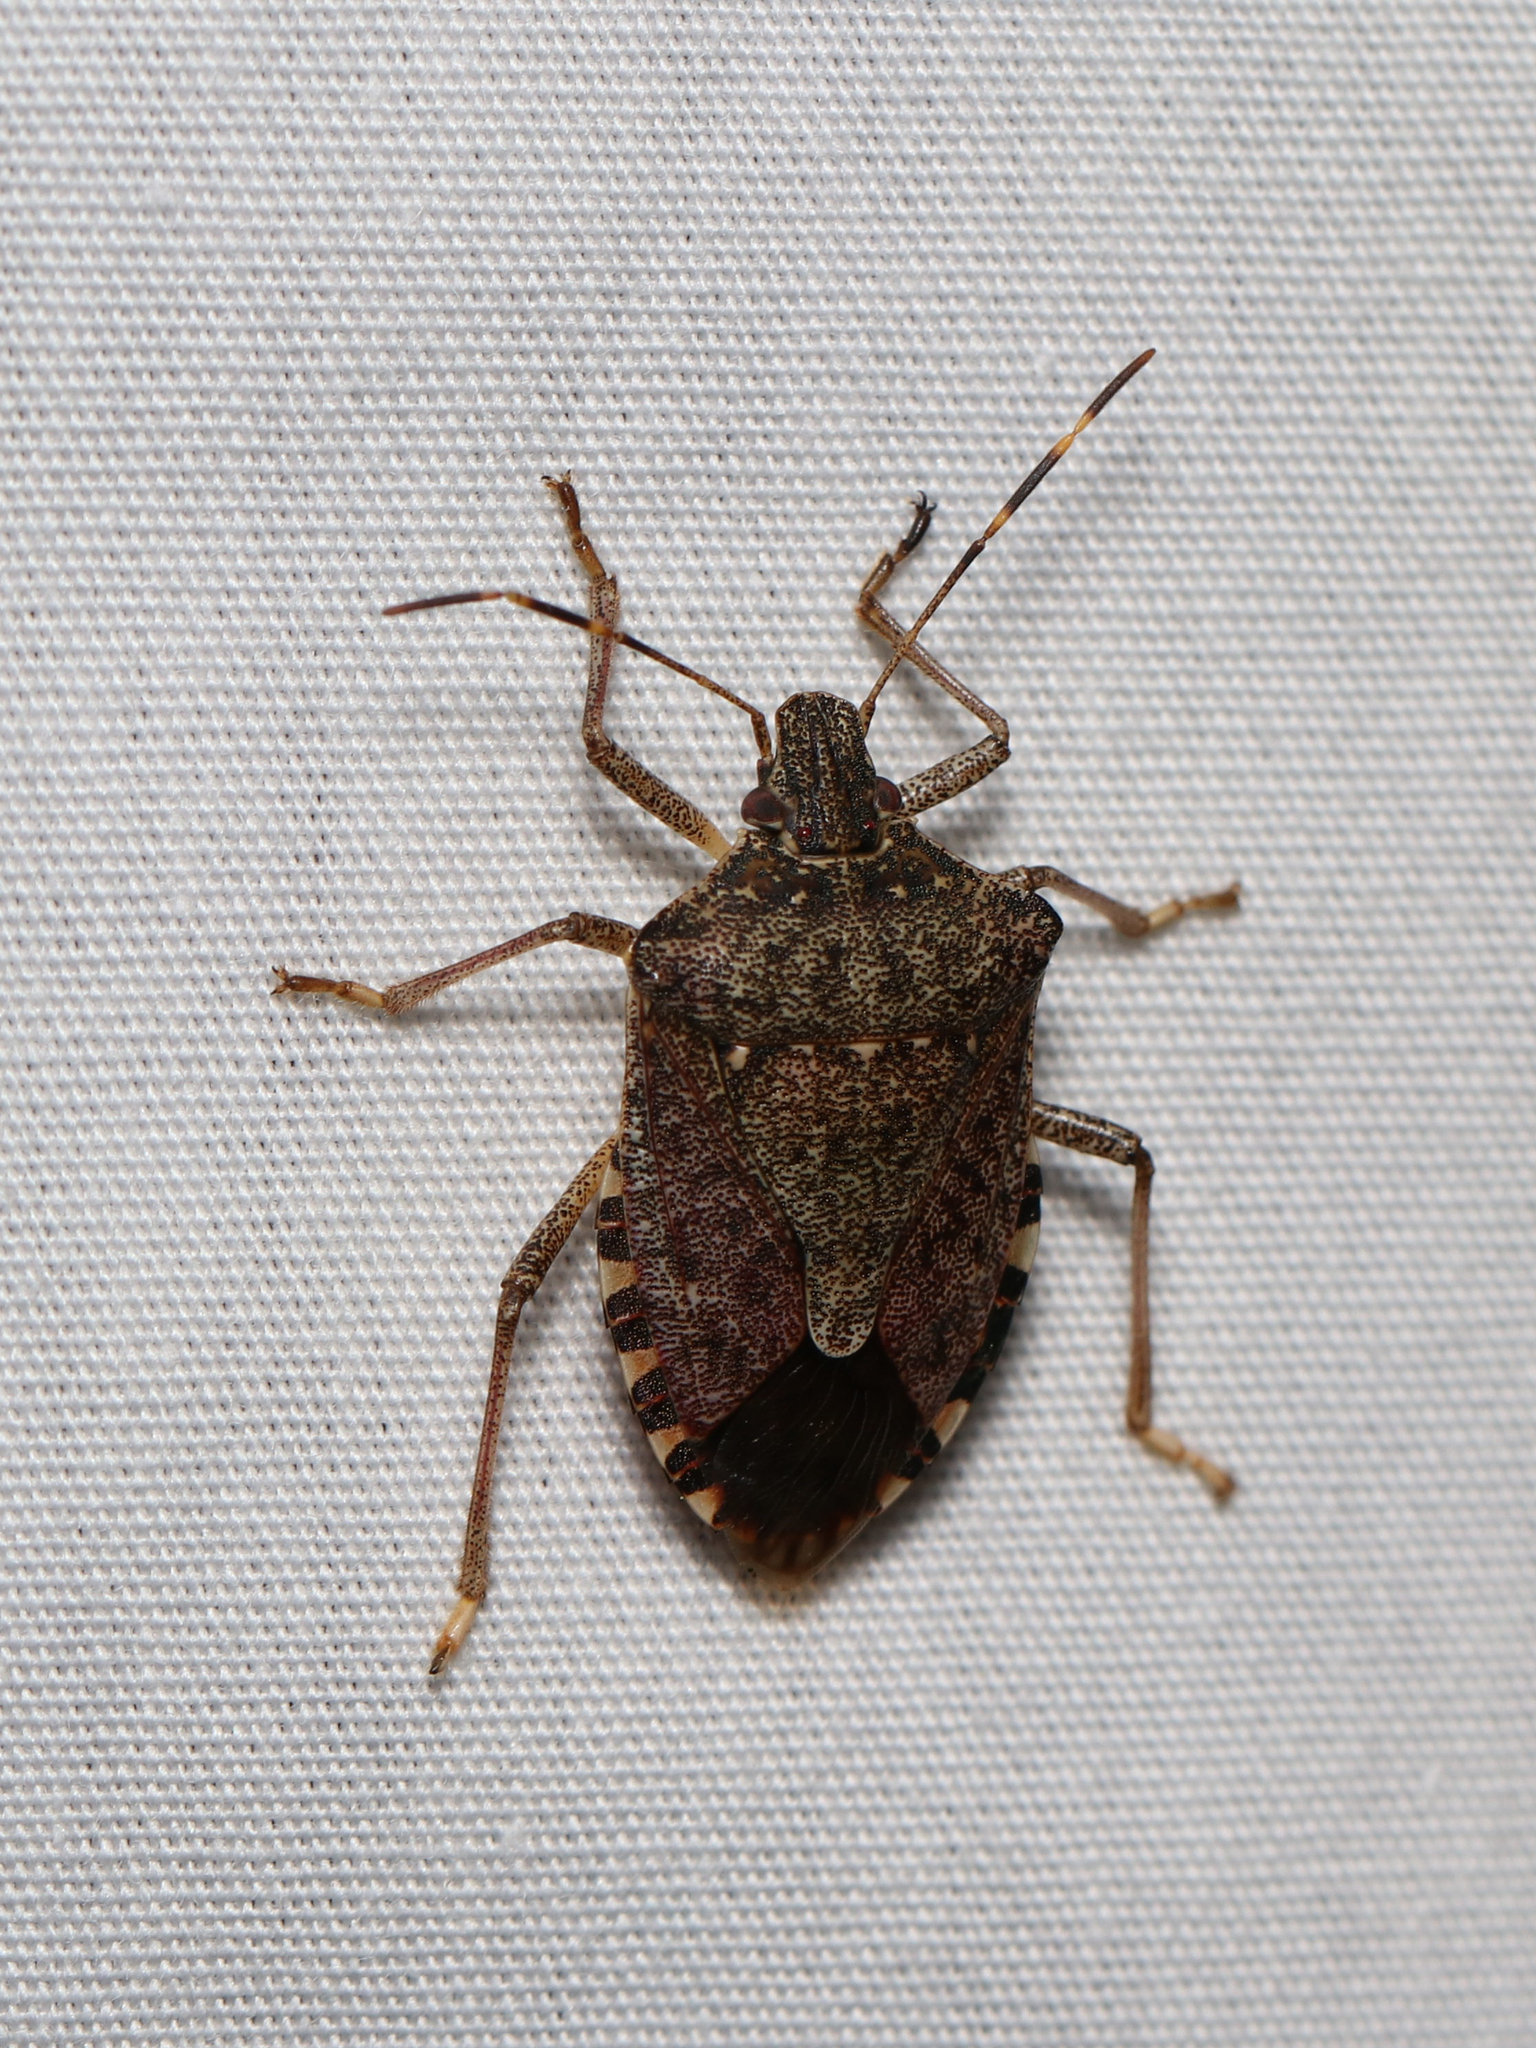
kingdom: Animalia
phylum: Arthropoda
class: Insecta
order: Hemiptera
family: Pentatomidae
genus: Halyomorpha
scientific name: Halyomorpha halys
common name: Brown marmorated stink bug
